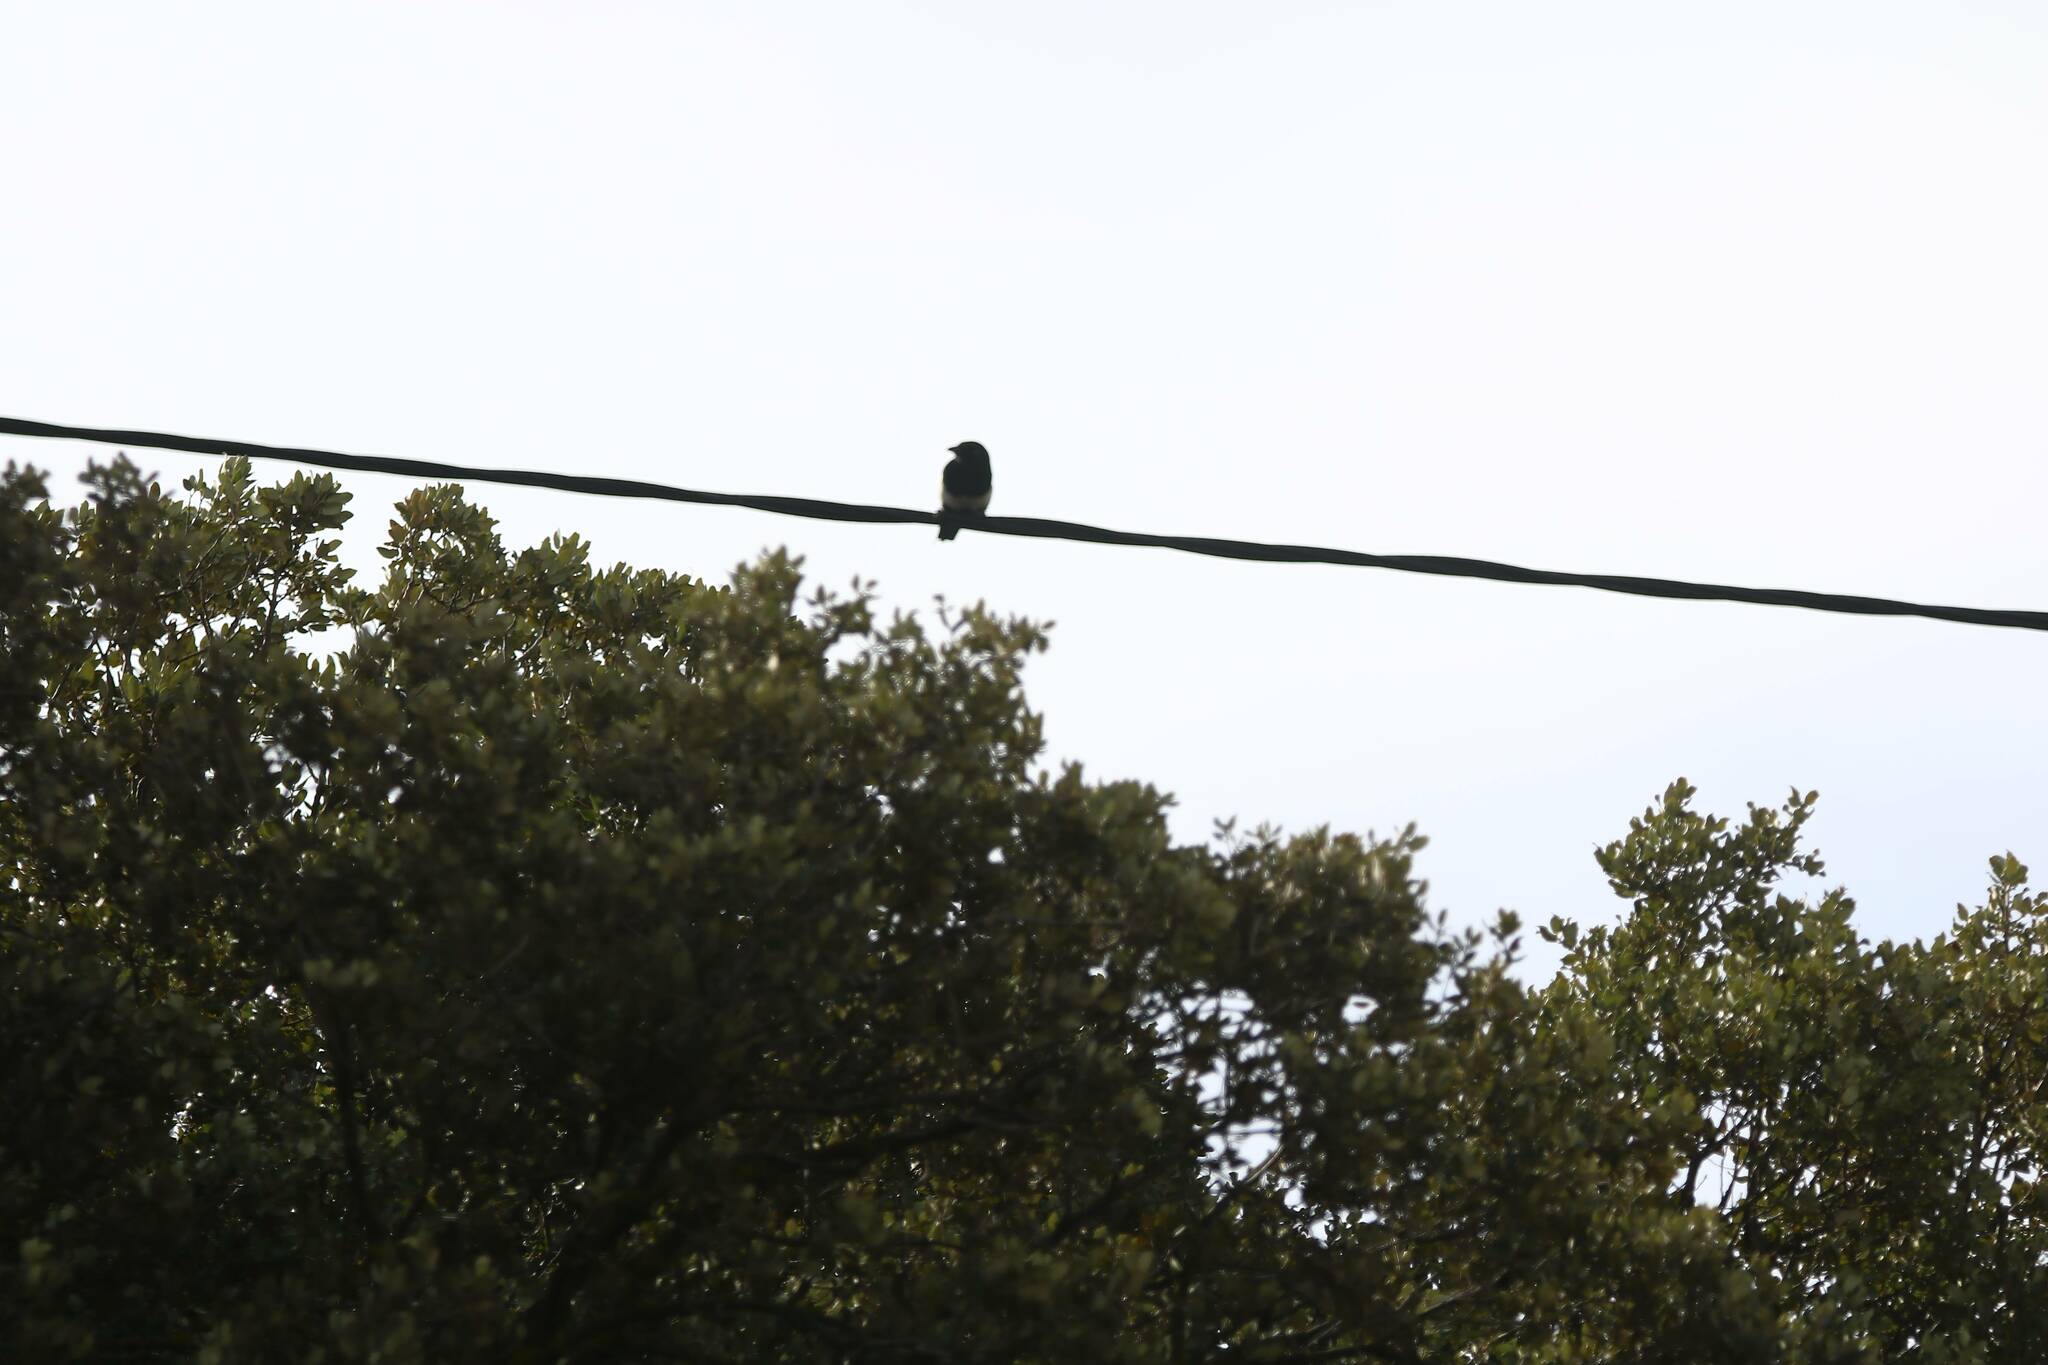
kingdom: Animalia
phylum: Chordata
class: Aves
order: Passeriformes
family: Corvidae
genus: Pica
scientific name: Pica mauritanica
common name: Maghreb magpie
